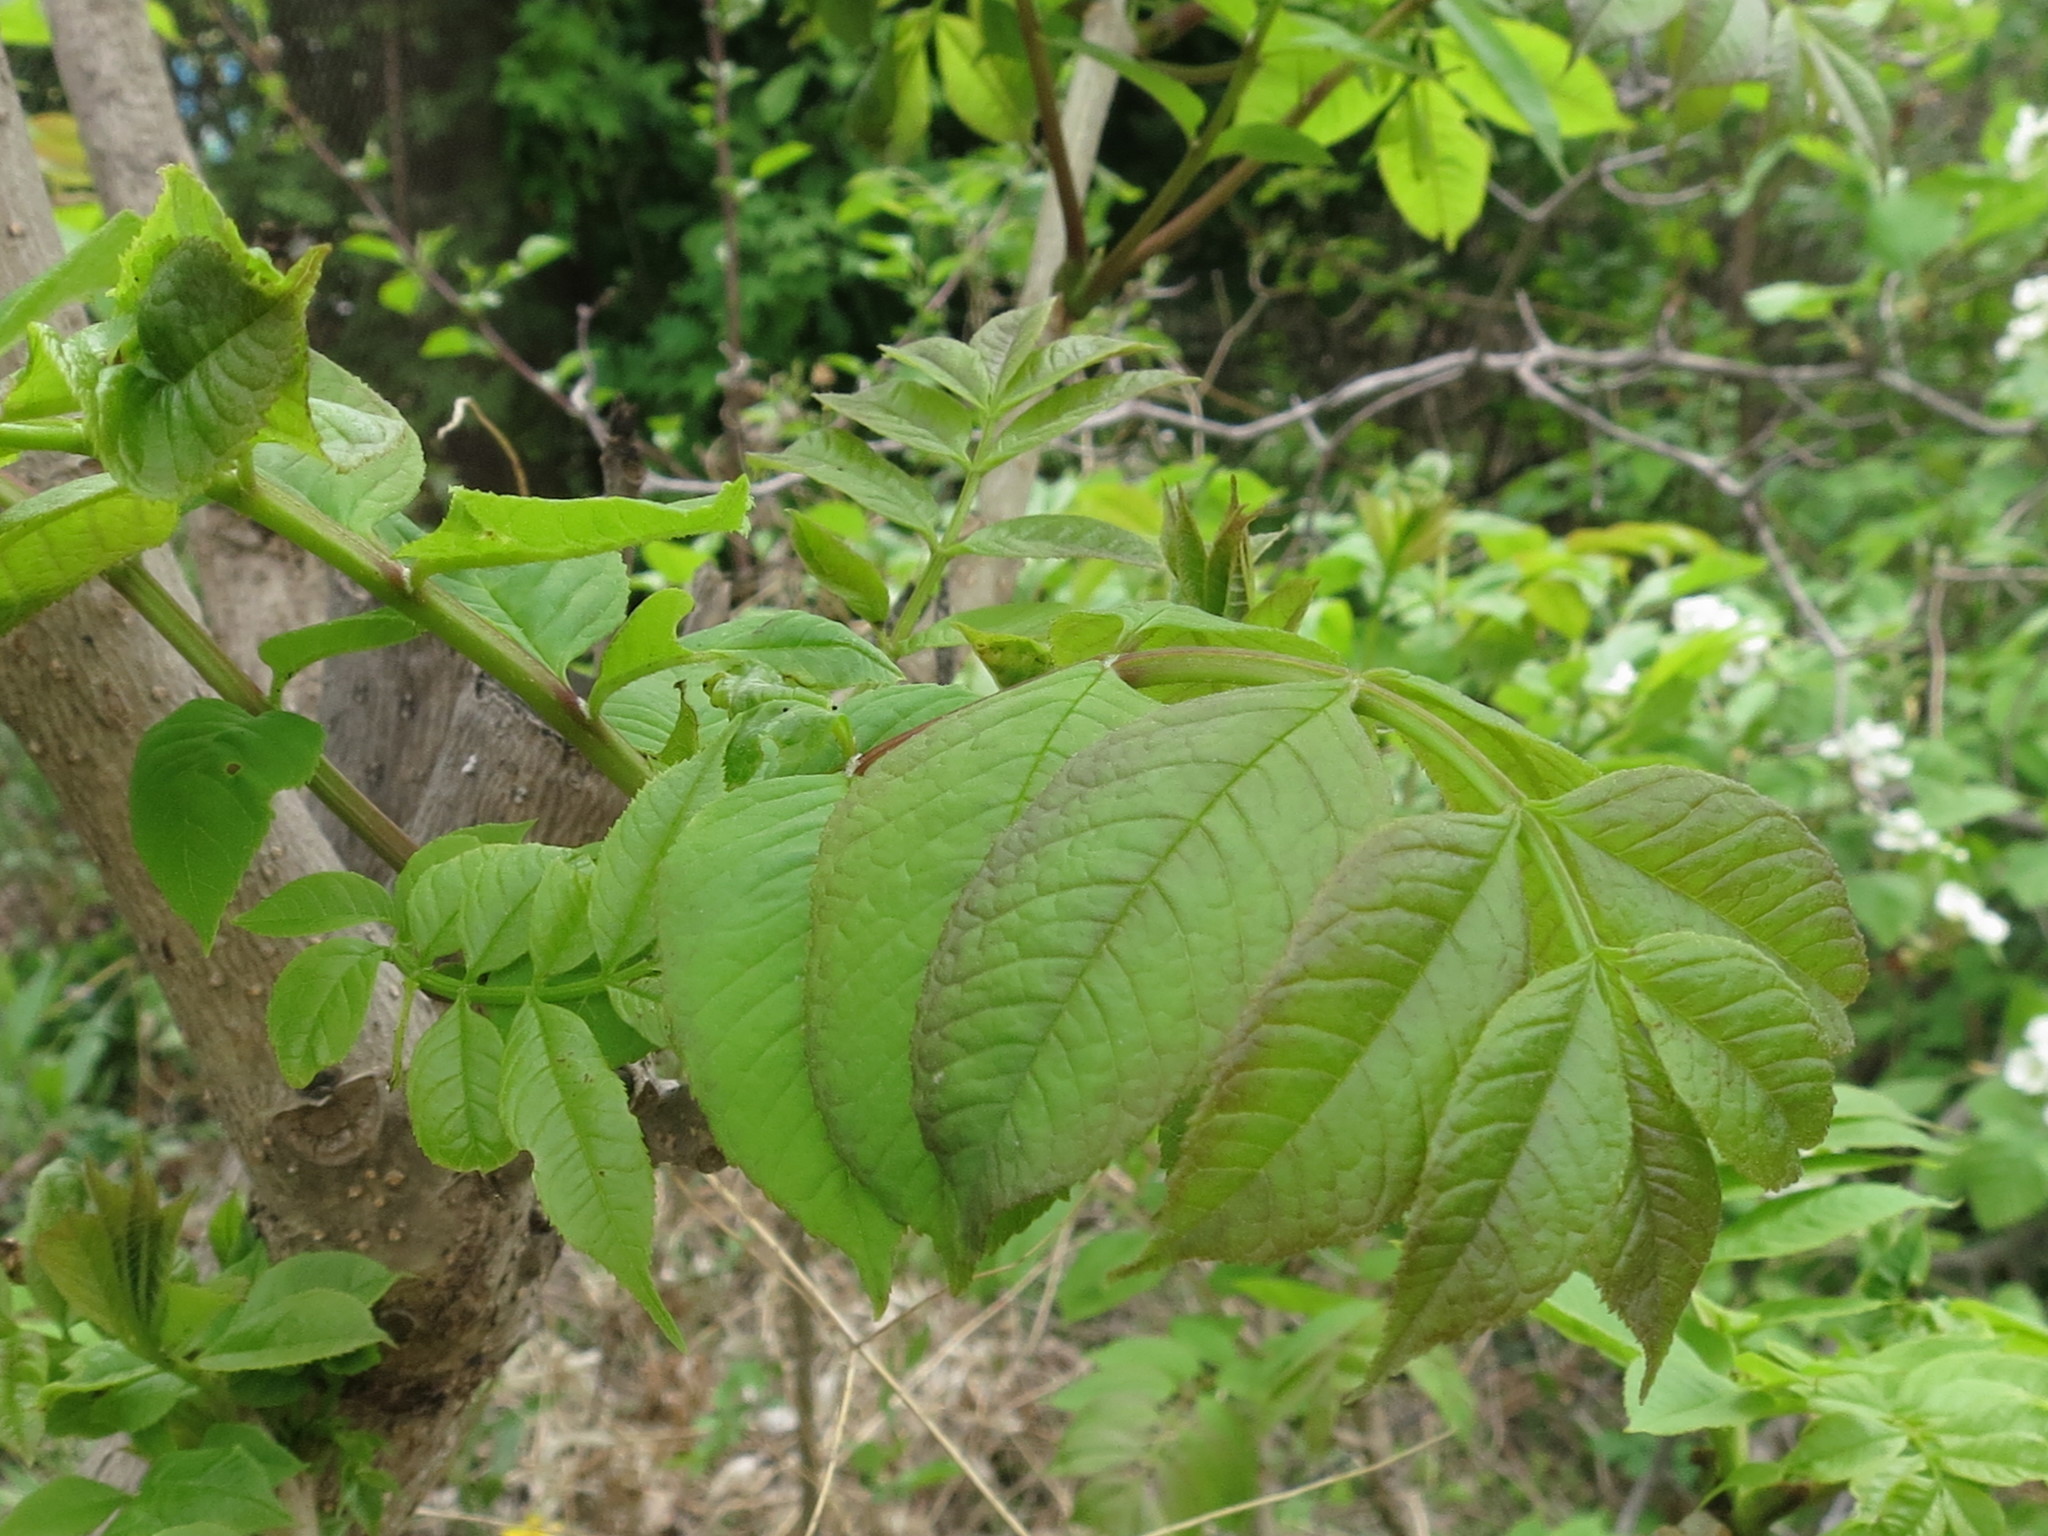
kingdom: Plantae
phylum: Tracheophyta
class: Magnoliopsida
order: Lamiales
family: Oleaceae
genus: Fraxinus
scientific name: Fraxinus mandshurica
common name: Manchurian ash
